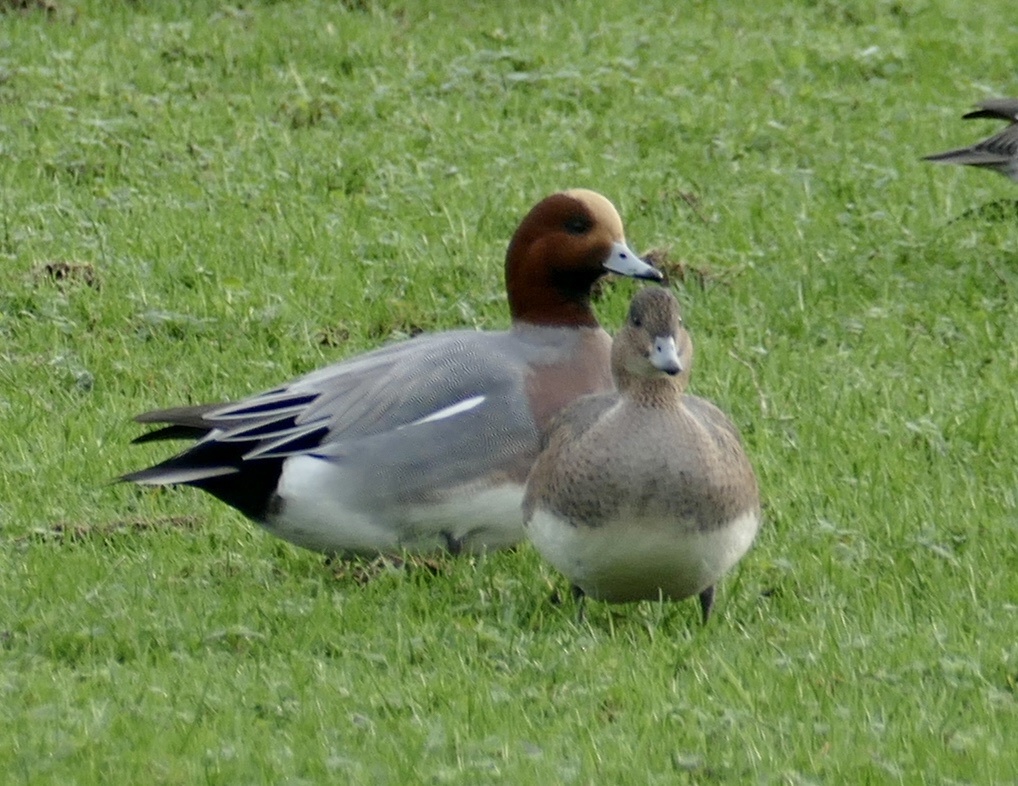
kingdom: Animalia
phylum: Chordata
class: Aves
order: Anseriformes
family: Anatidae
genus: Mareca
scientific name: Mareca penelope
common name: Eurasian wigeon
